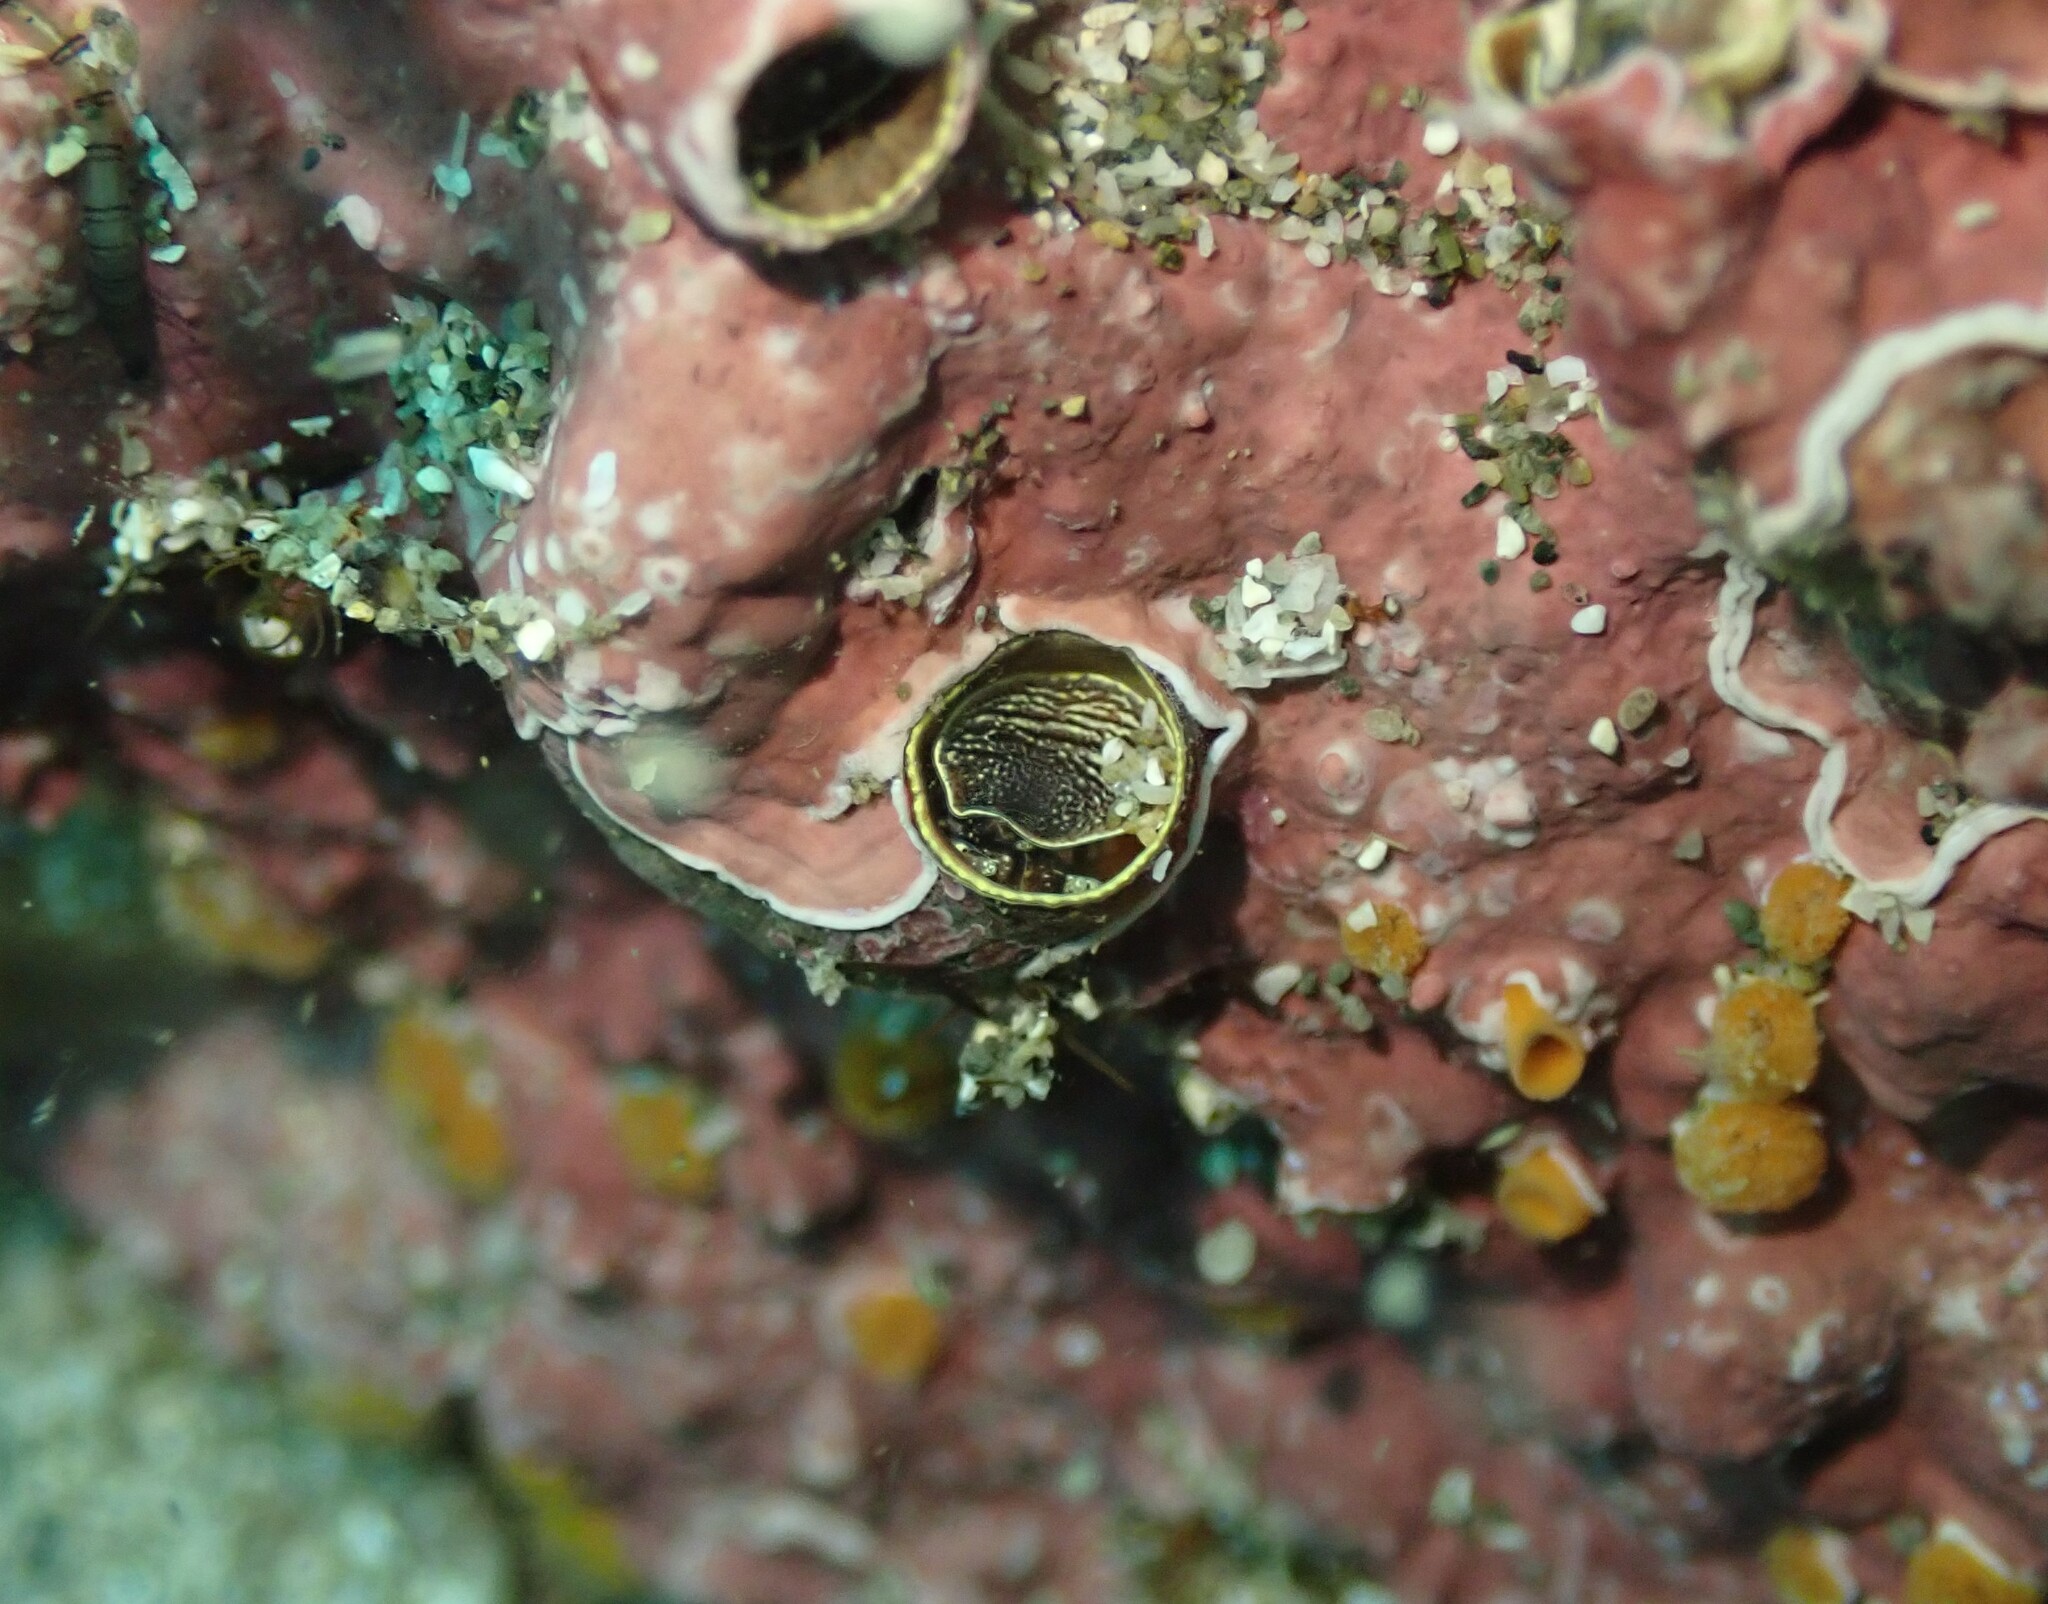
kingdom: Animalia
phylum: Mollusca
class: Gastropoda
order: Littorinimorpha
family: Vermetidae
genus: Thylacodes
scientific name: Thylacodes aotearoicus
